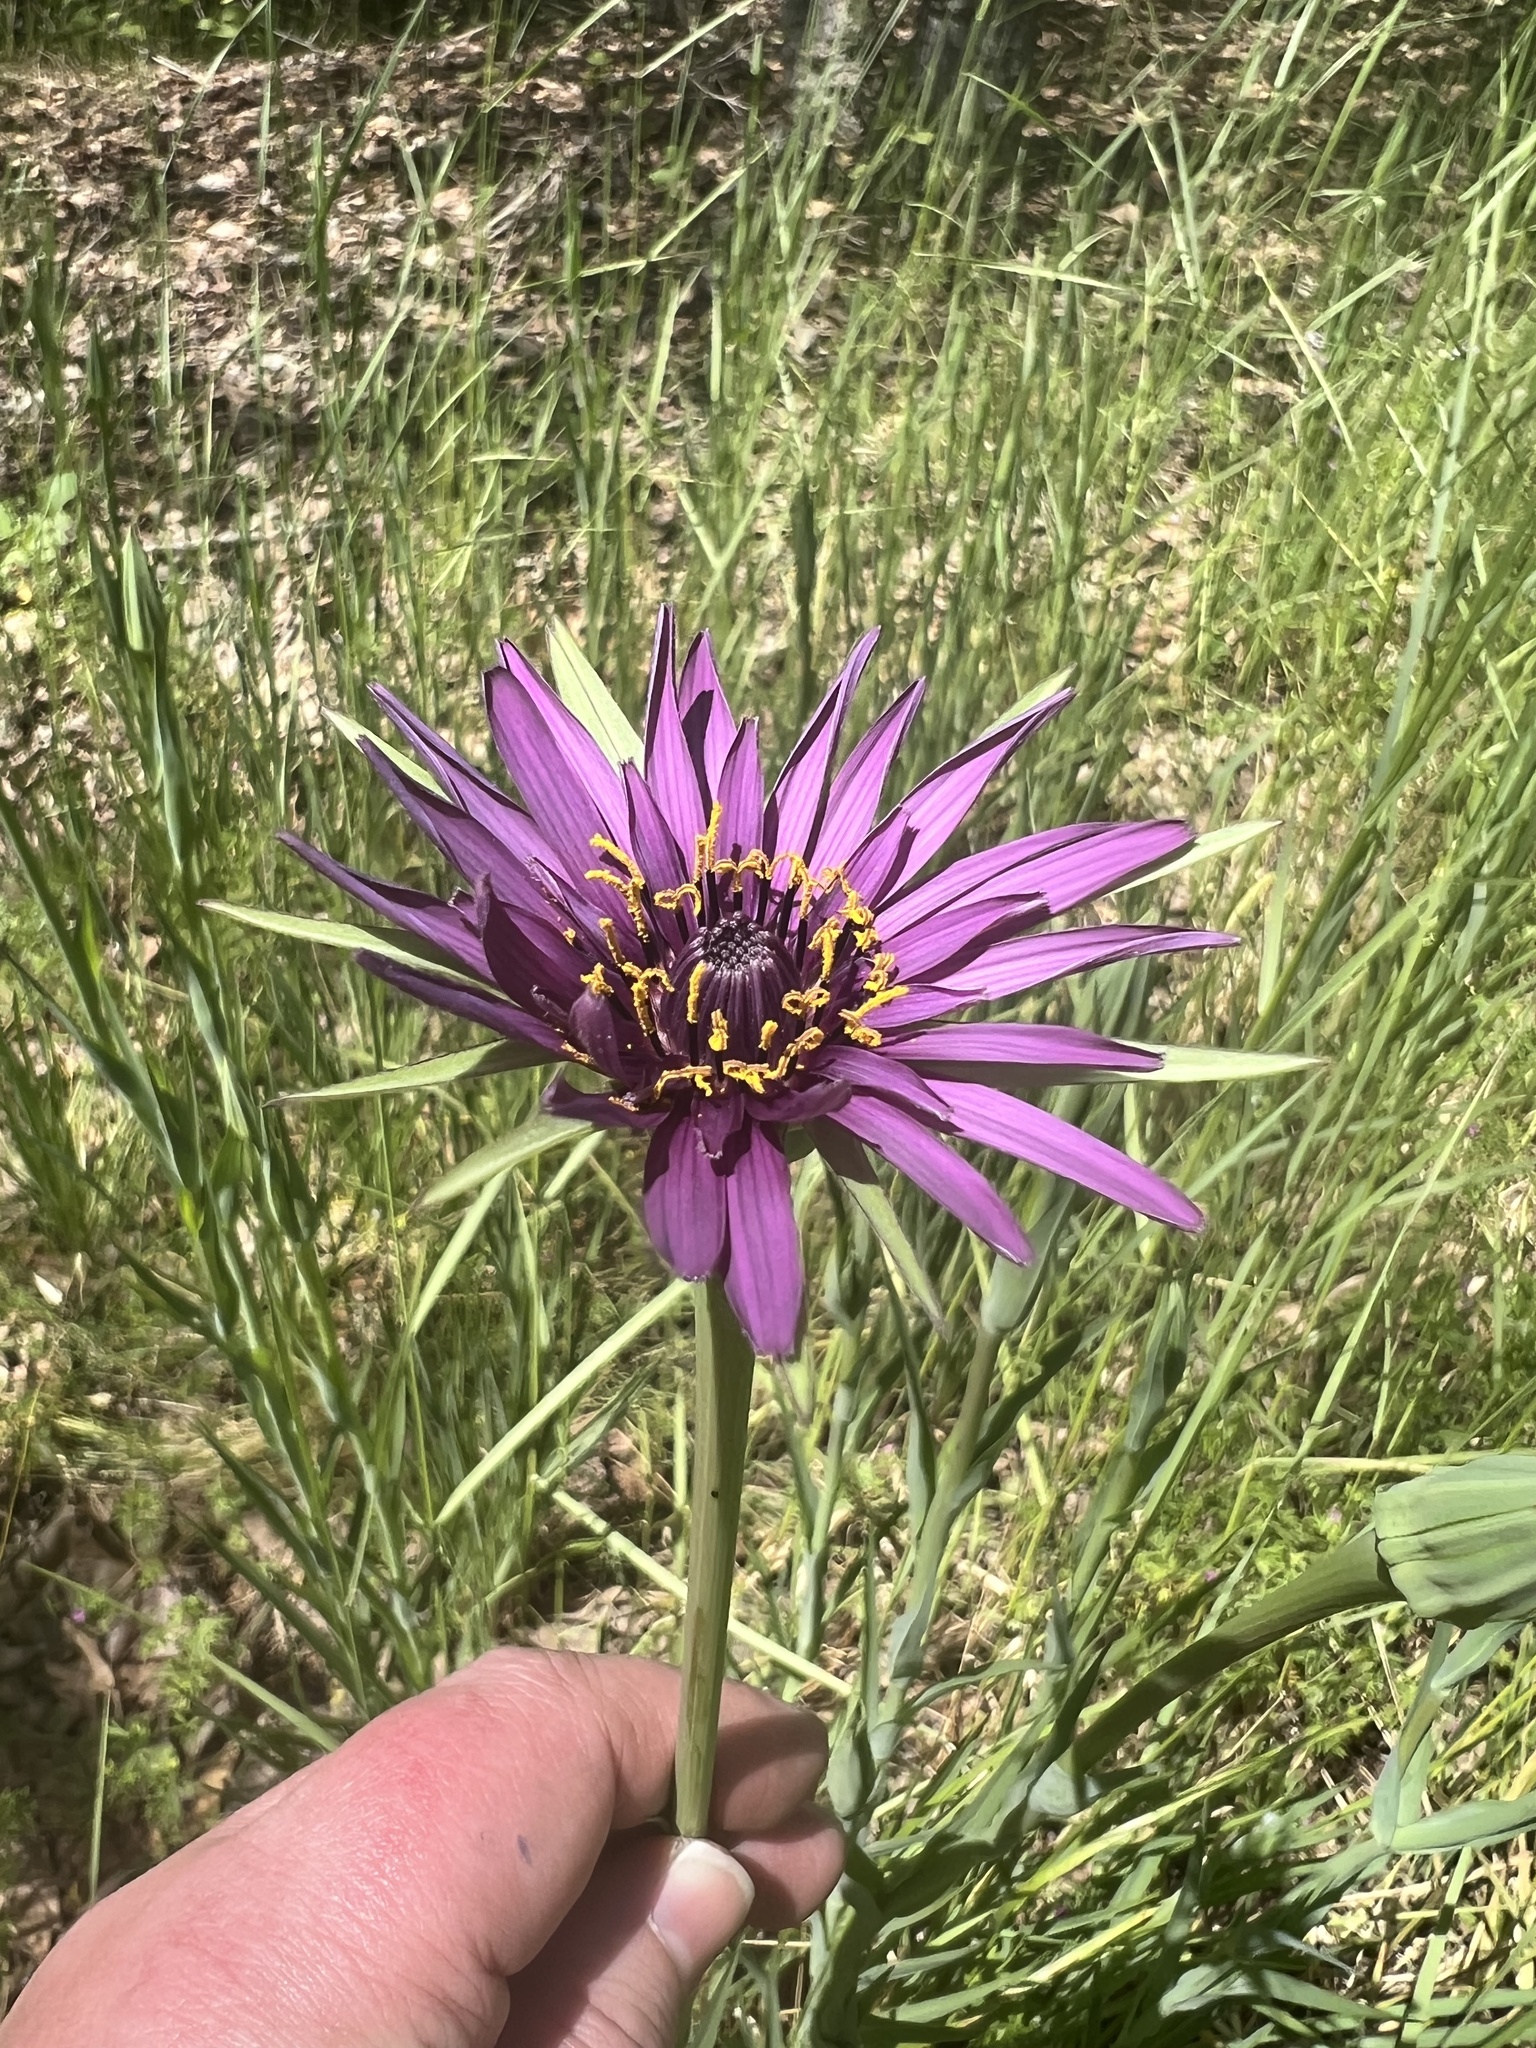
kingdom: Plantae
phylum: Tracheophyta
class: Magnoliopsida
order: Asterales
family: Asteraceae
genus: Tragopogon
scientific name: Tragopogon porrifolius
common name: Salsify
